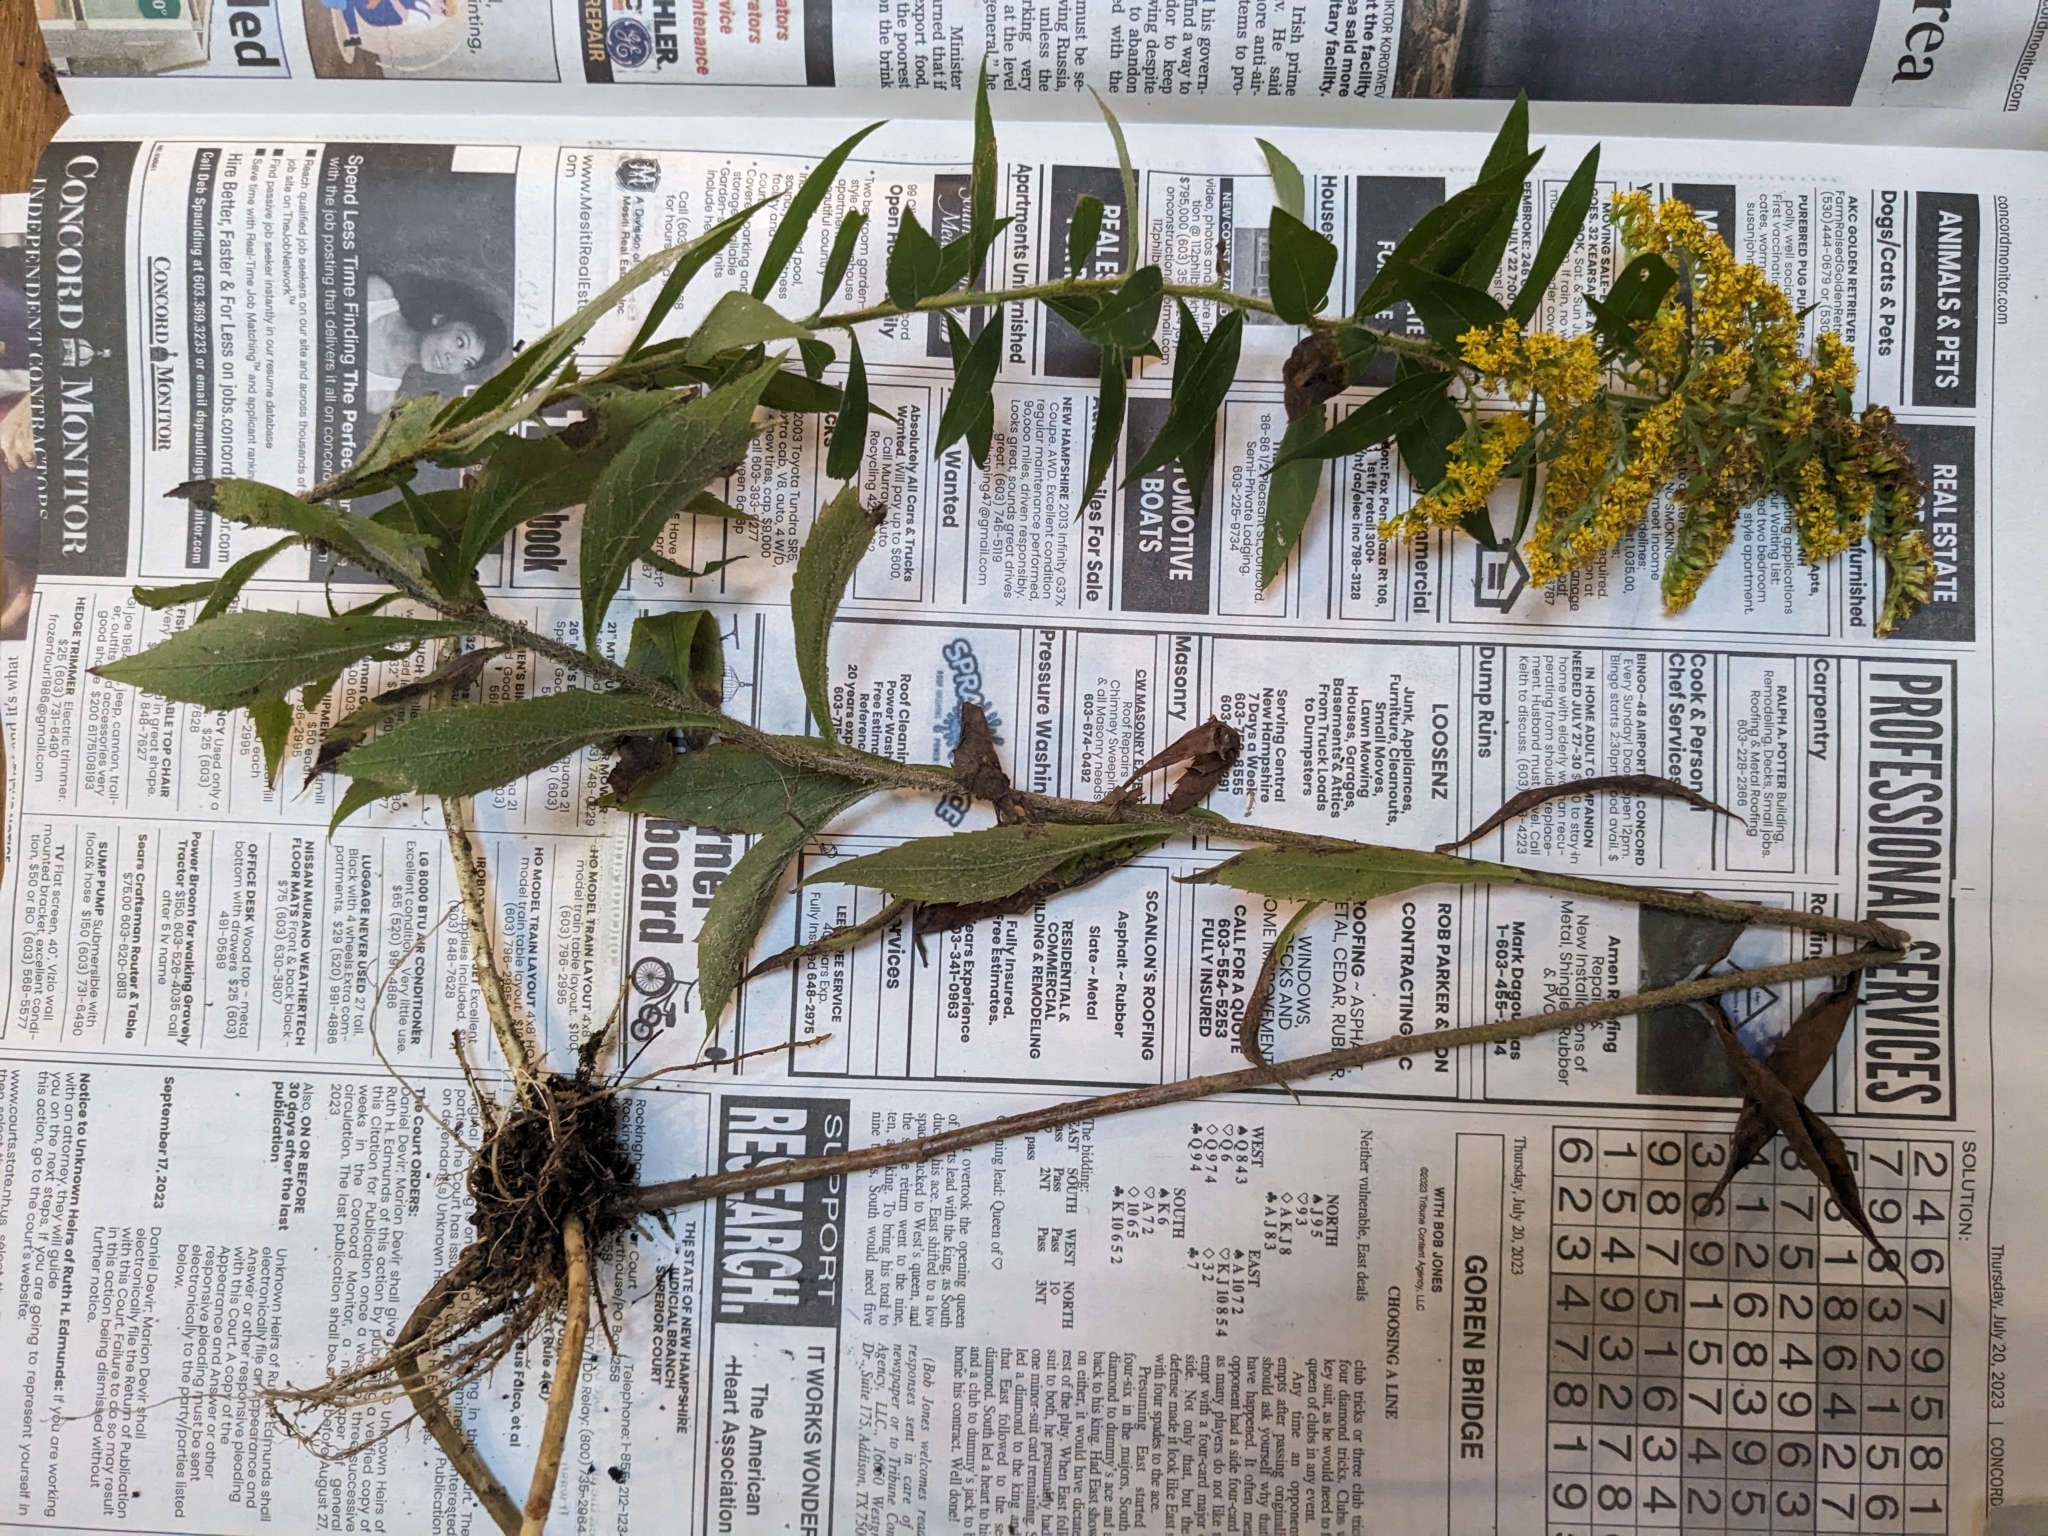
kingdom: Plantae
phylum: Tracheophyta
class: Magnoliopsida
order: Asterales
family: Asteraceae
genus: Solidago
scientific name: Solidago rugosa
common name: Rough-stemmed goldenrod
